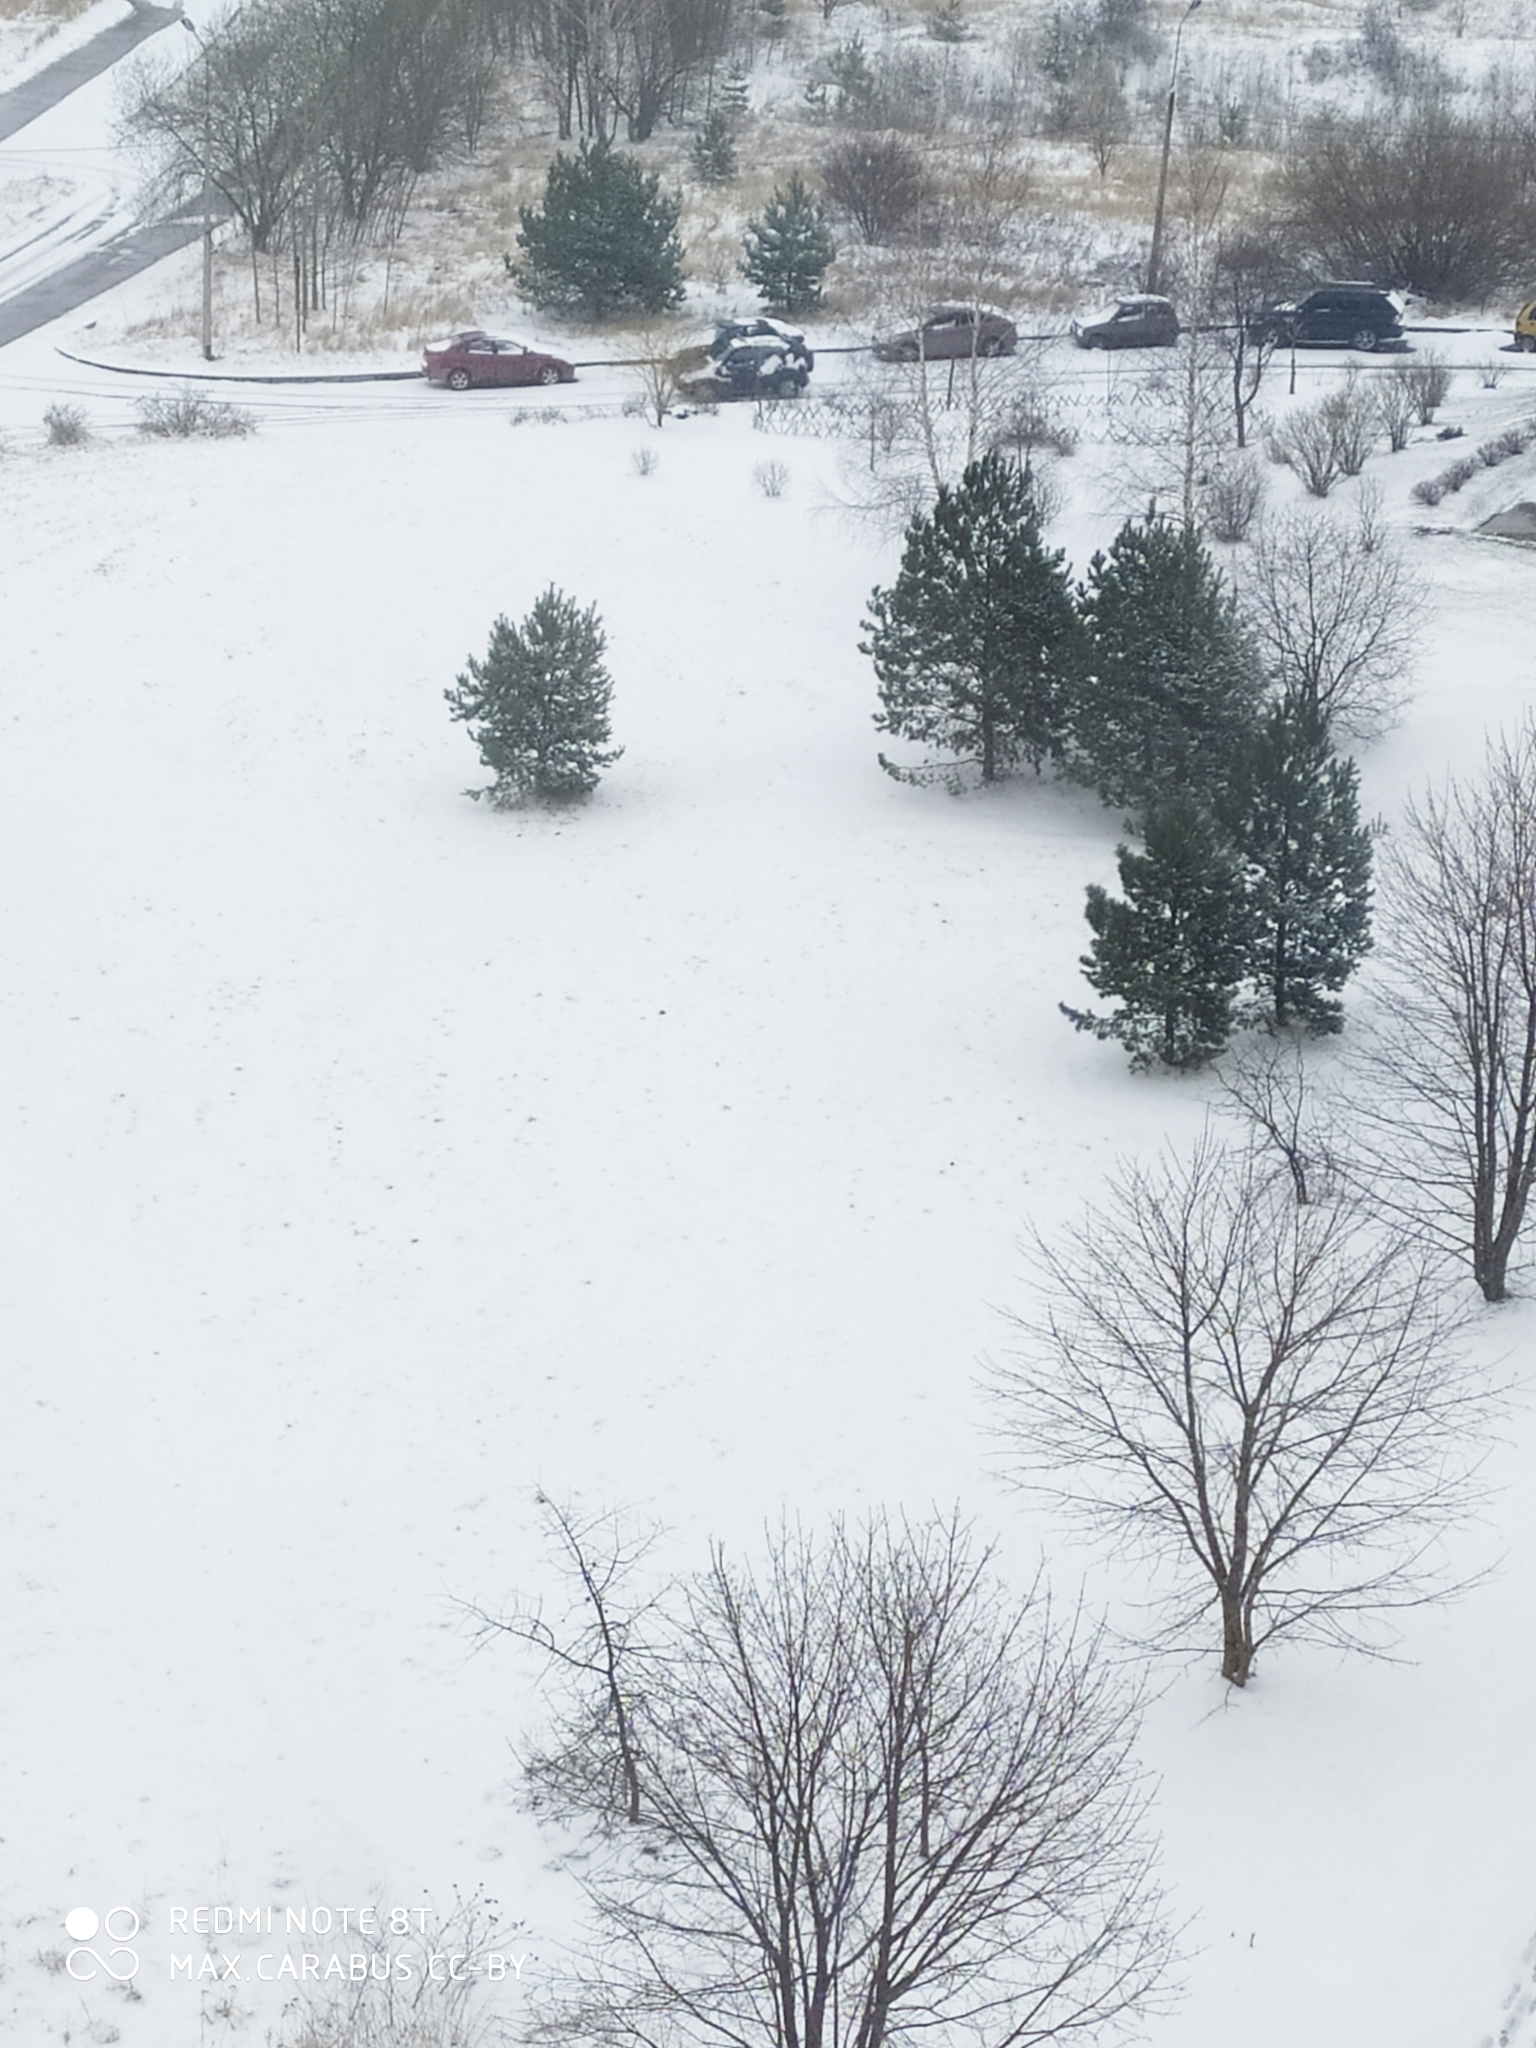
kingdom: Plantae
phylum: Tracheophyta
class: Pinopsida
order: Pinales
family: Pinaceae
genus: Pinus
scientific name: Pinus sylvestris
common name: Scots pine
